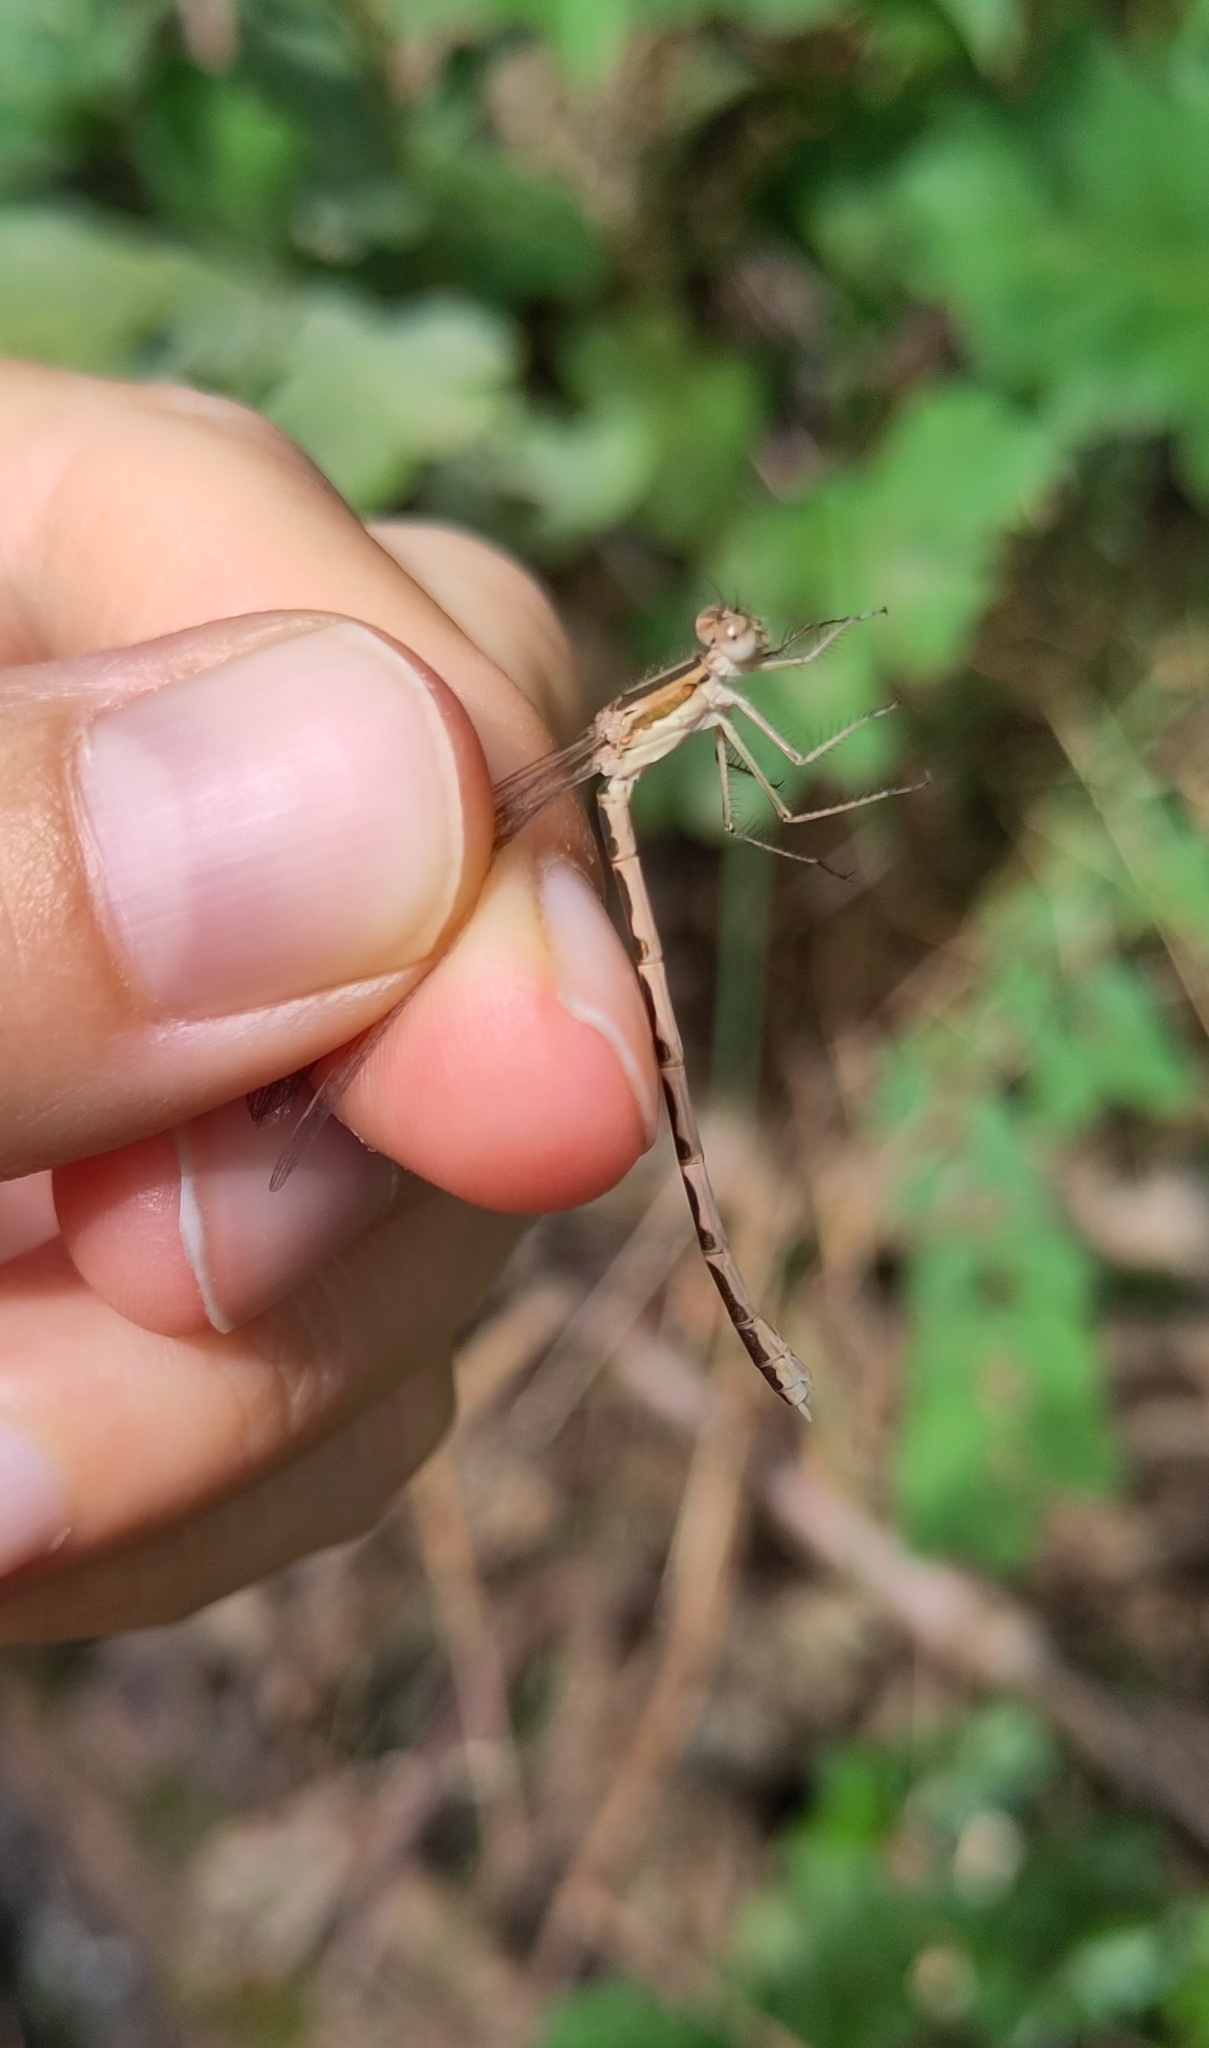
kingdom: Animalia
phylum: Arthropoda
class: Insecta
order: Odonata
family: Lestidae
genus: Sympecma
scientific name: Sympecma fusca
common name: Common winter damsel
